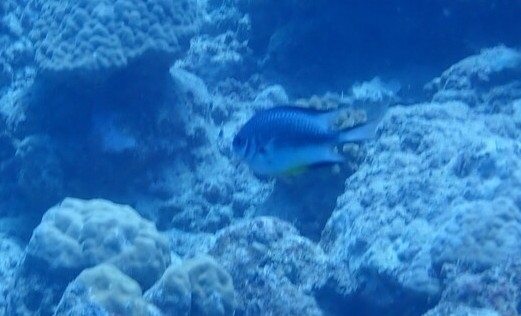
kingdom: Animalia
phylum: Chordata
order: Perciformes
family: Pomacentridae
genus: Amblyglyphidodon
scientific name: Amblyglyphidodon leucogaster
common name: White-belly damsel
